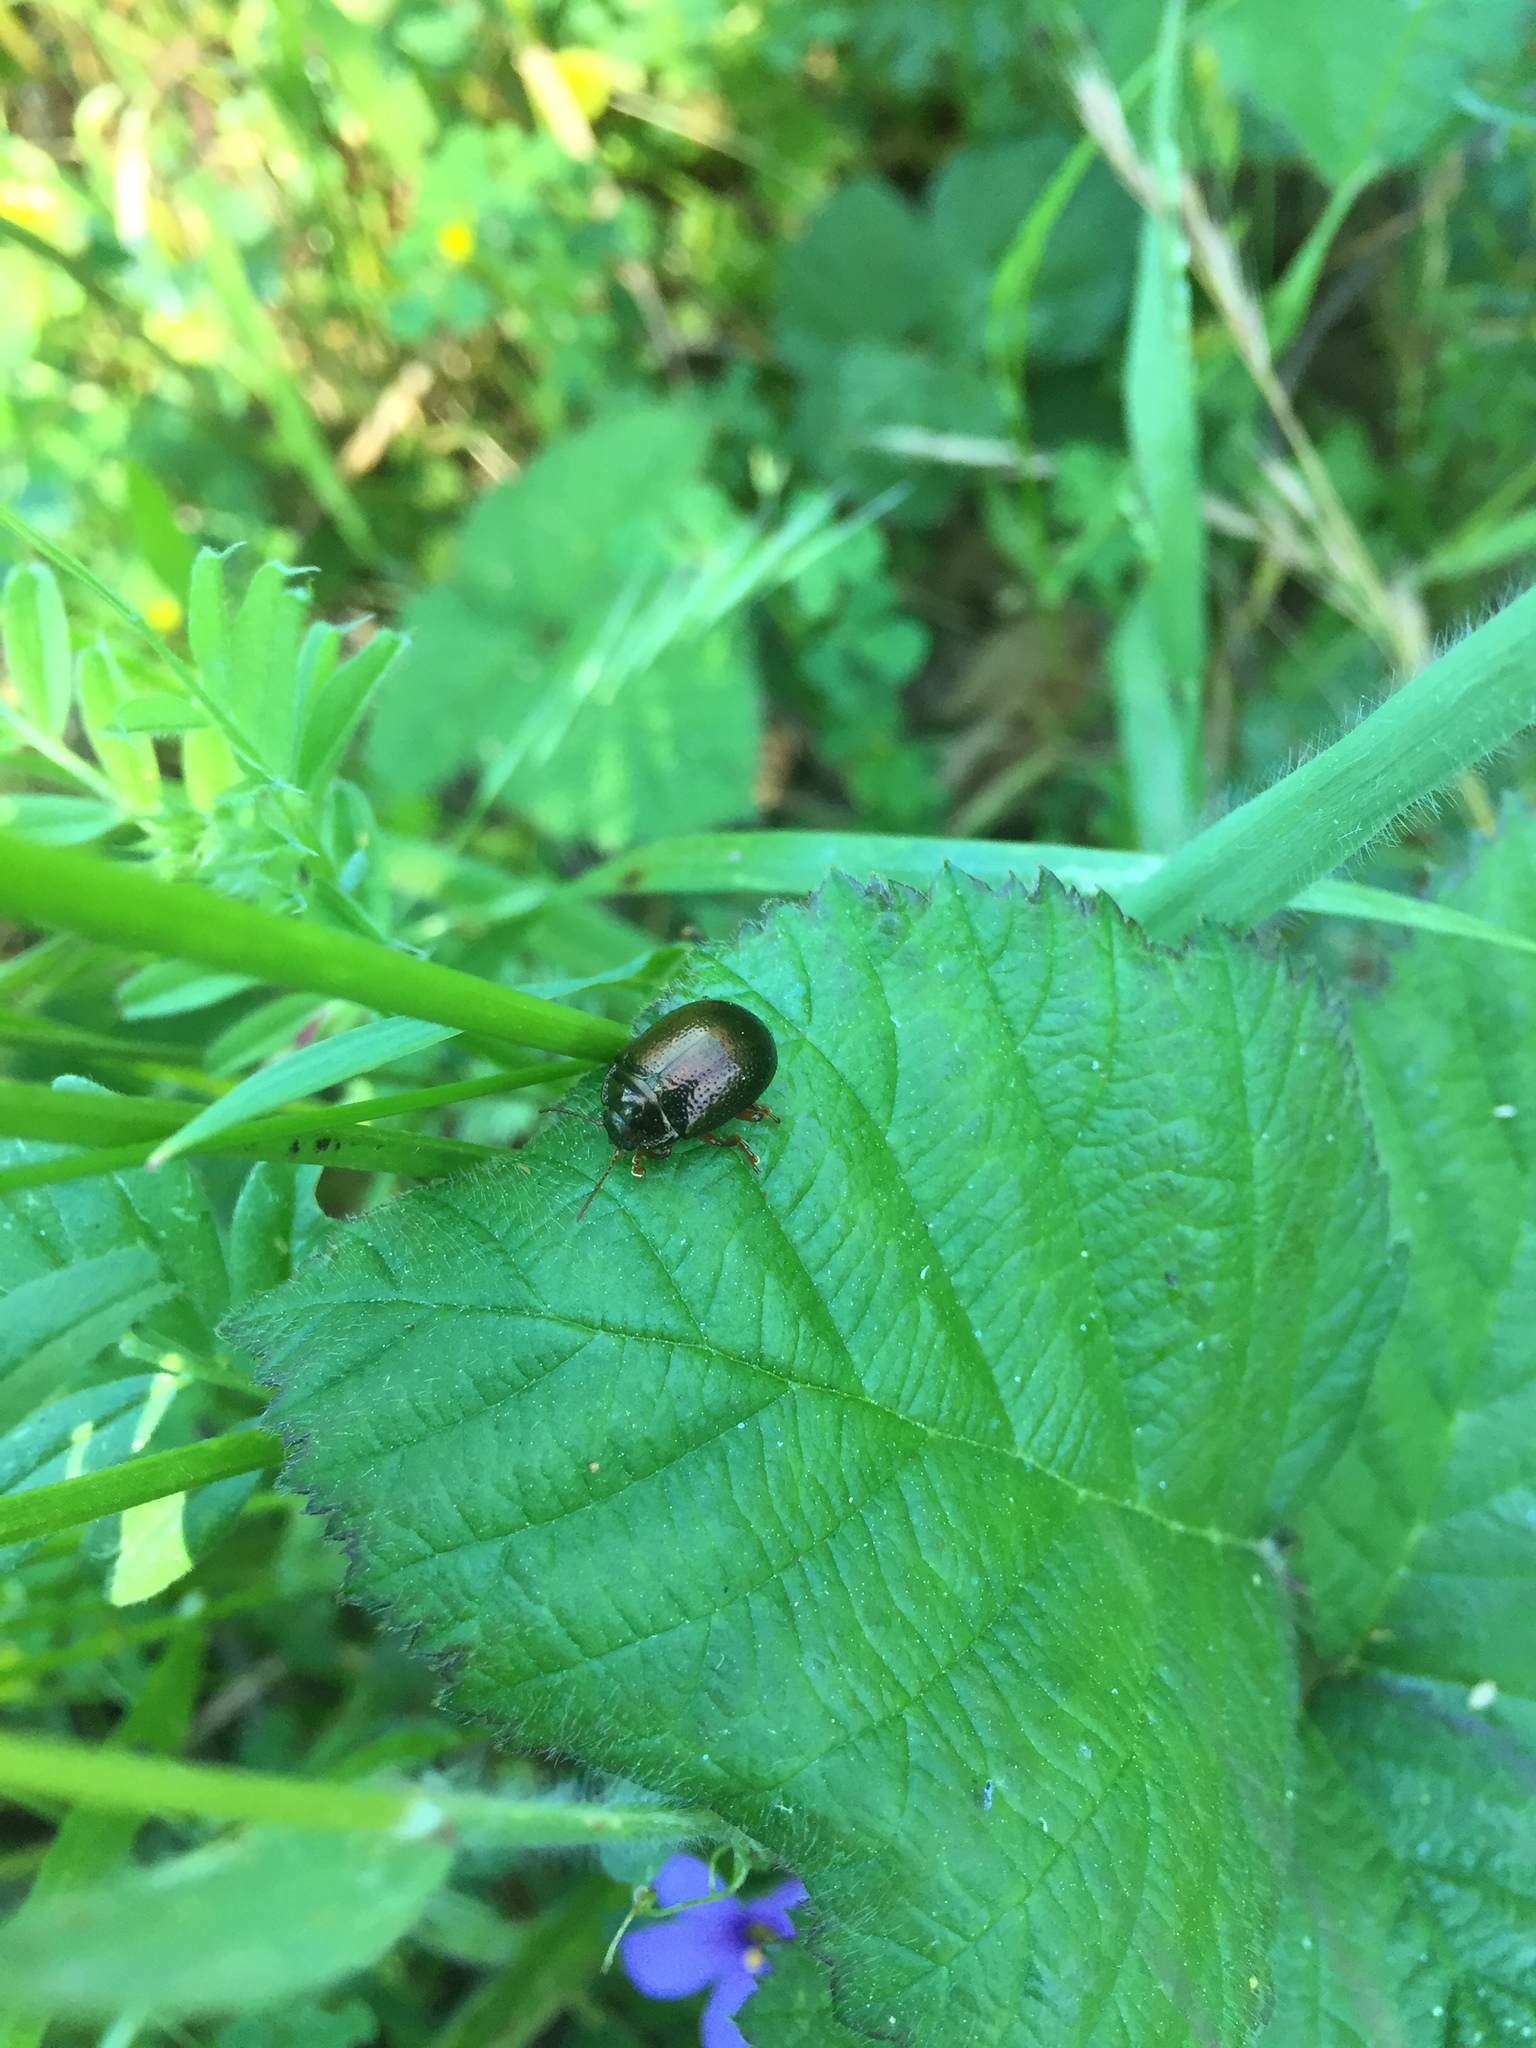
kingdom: Animalia
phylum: Arthropoda
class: Insecta
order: Coleoptera
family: Chrysomelidae
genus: Chrysolina
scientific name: Chrysolina bankii
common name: Leaf beetle
